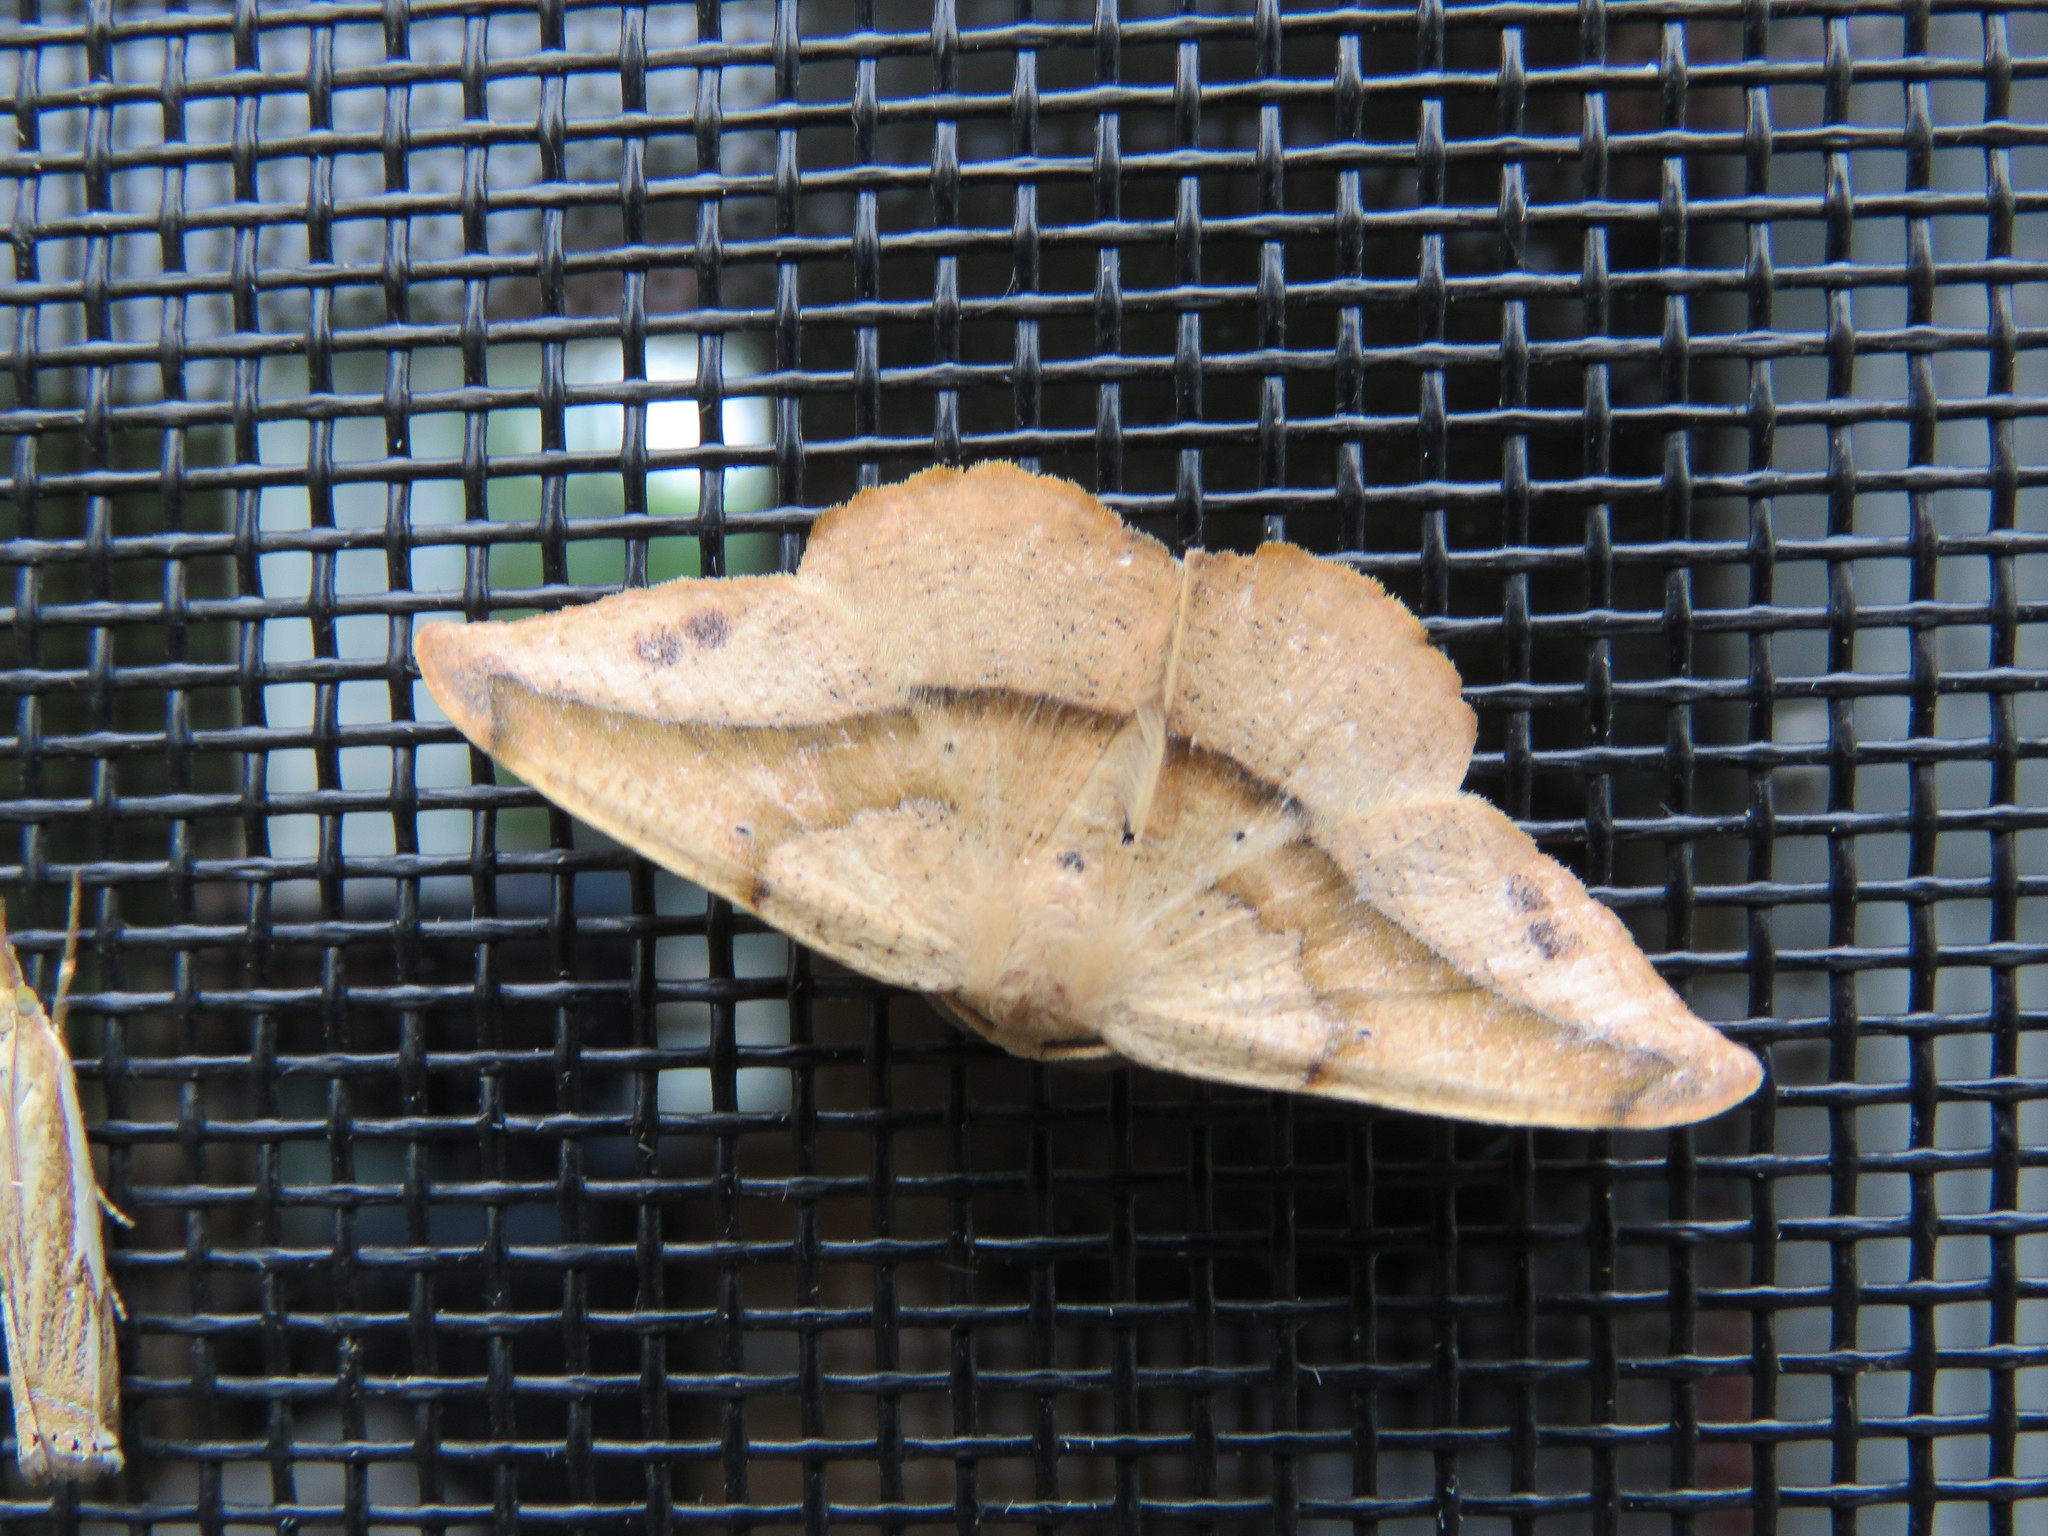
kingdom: Animalia
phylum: Arthropoda
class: Insecta
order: Lepidoptera
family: Geometridae
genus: Patalene
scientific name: Patalene olyzonaria
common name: Juniper geometer moth
